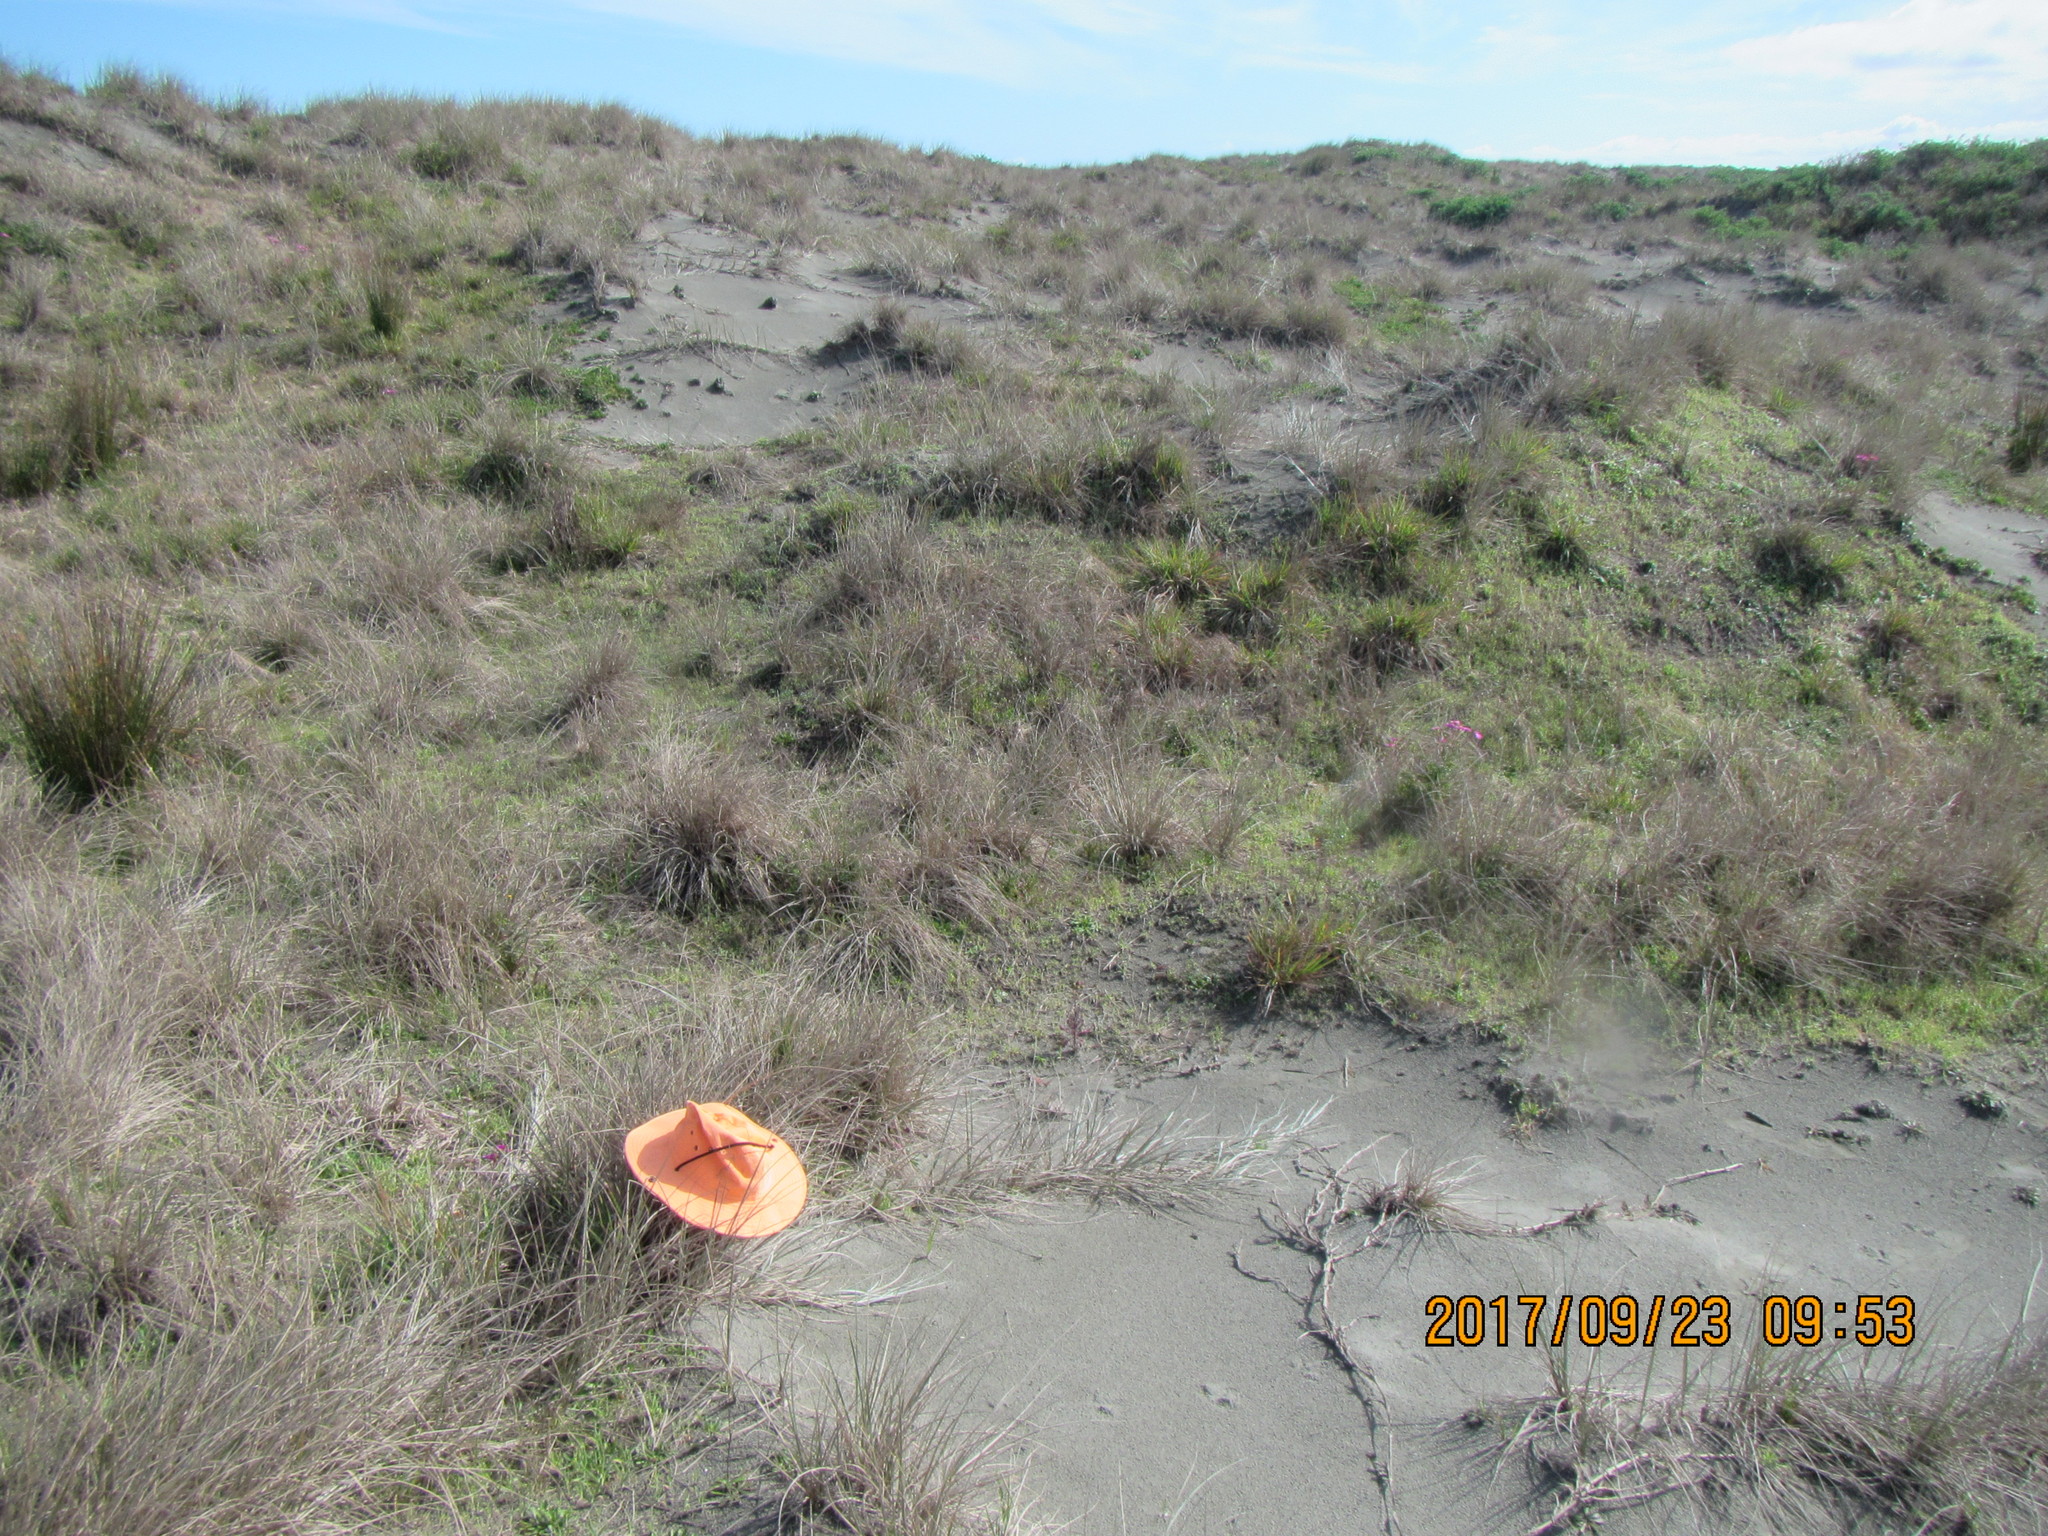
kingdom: Plantae
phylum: Tracheophyta
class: Liliopsida
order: Poales
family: Poaceae
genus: Lachnagrostis
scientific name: Lachnagrostis billardierei
